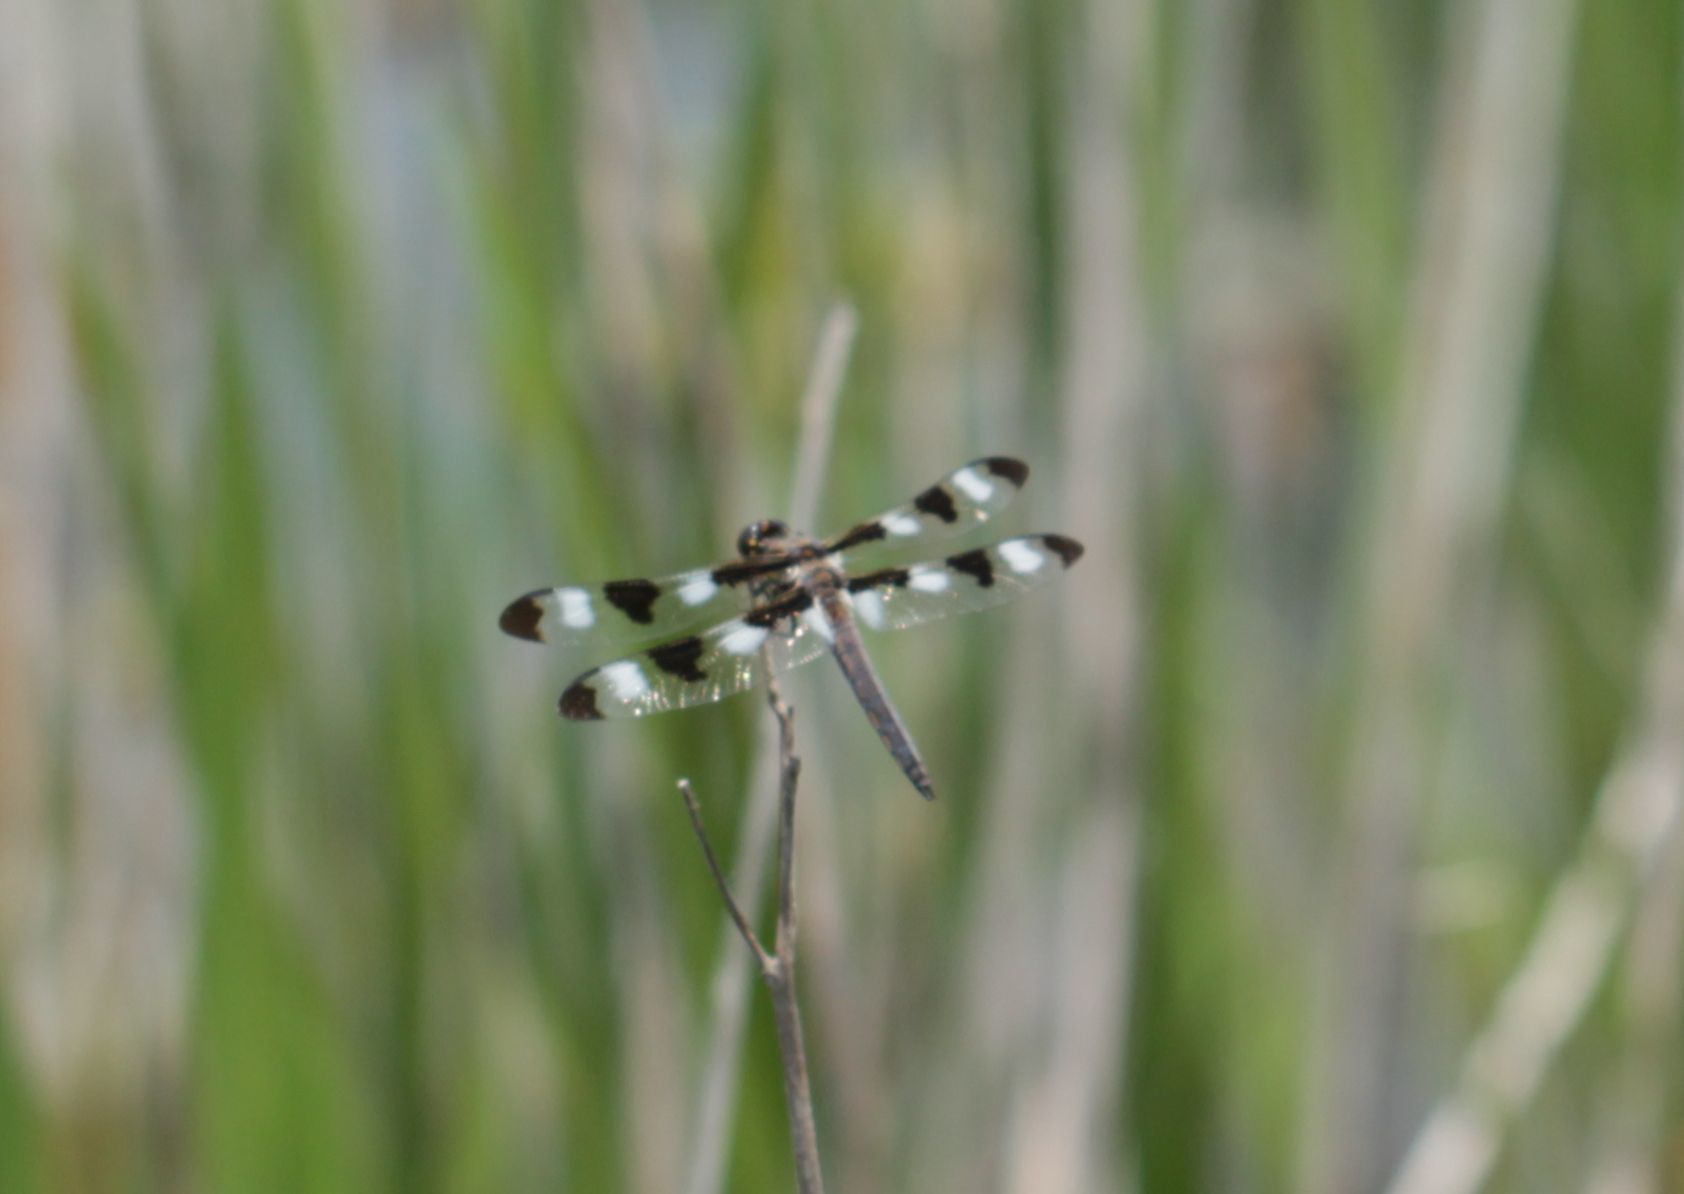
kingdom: Animalia
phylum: Arthropoda
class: Insecta
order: Odonata
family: Libellulidae
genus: Libellula
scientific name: Libellula pulchella
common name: Twelve-spotted skimmer
